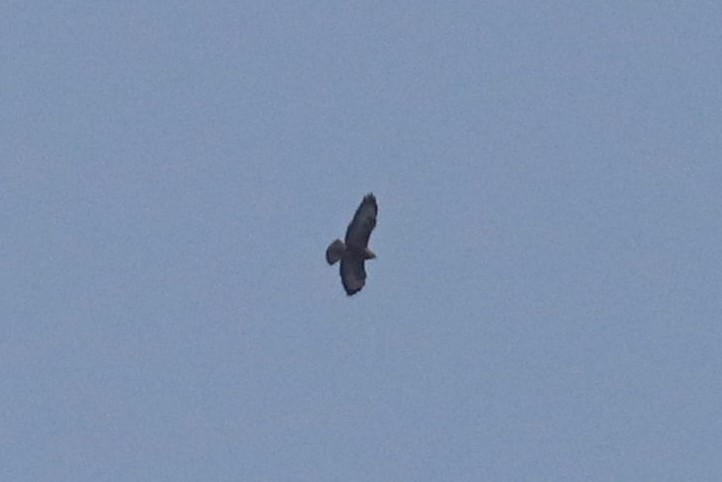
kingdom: Animalia
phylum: Chordata
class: Aves
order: Accipitriformes
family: Accipitridae
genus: Buteo
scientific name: Buteo buteo
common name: Common buzzard
